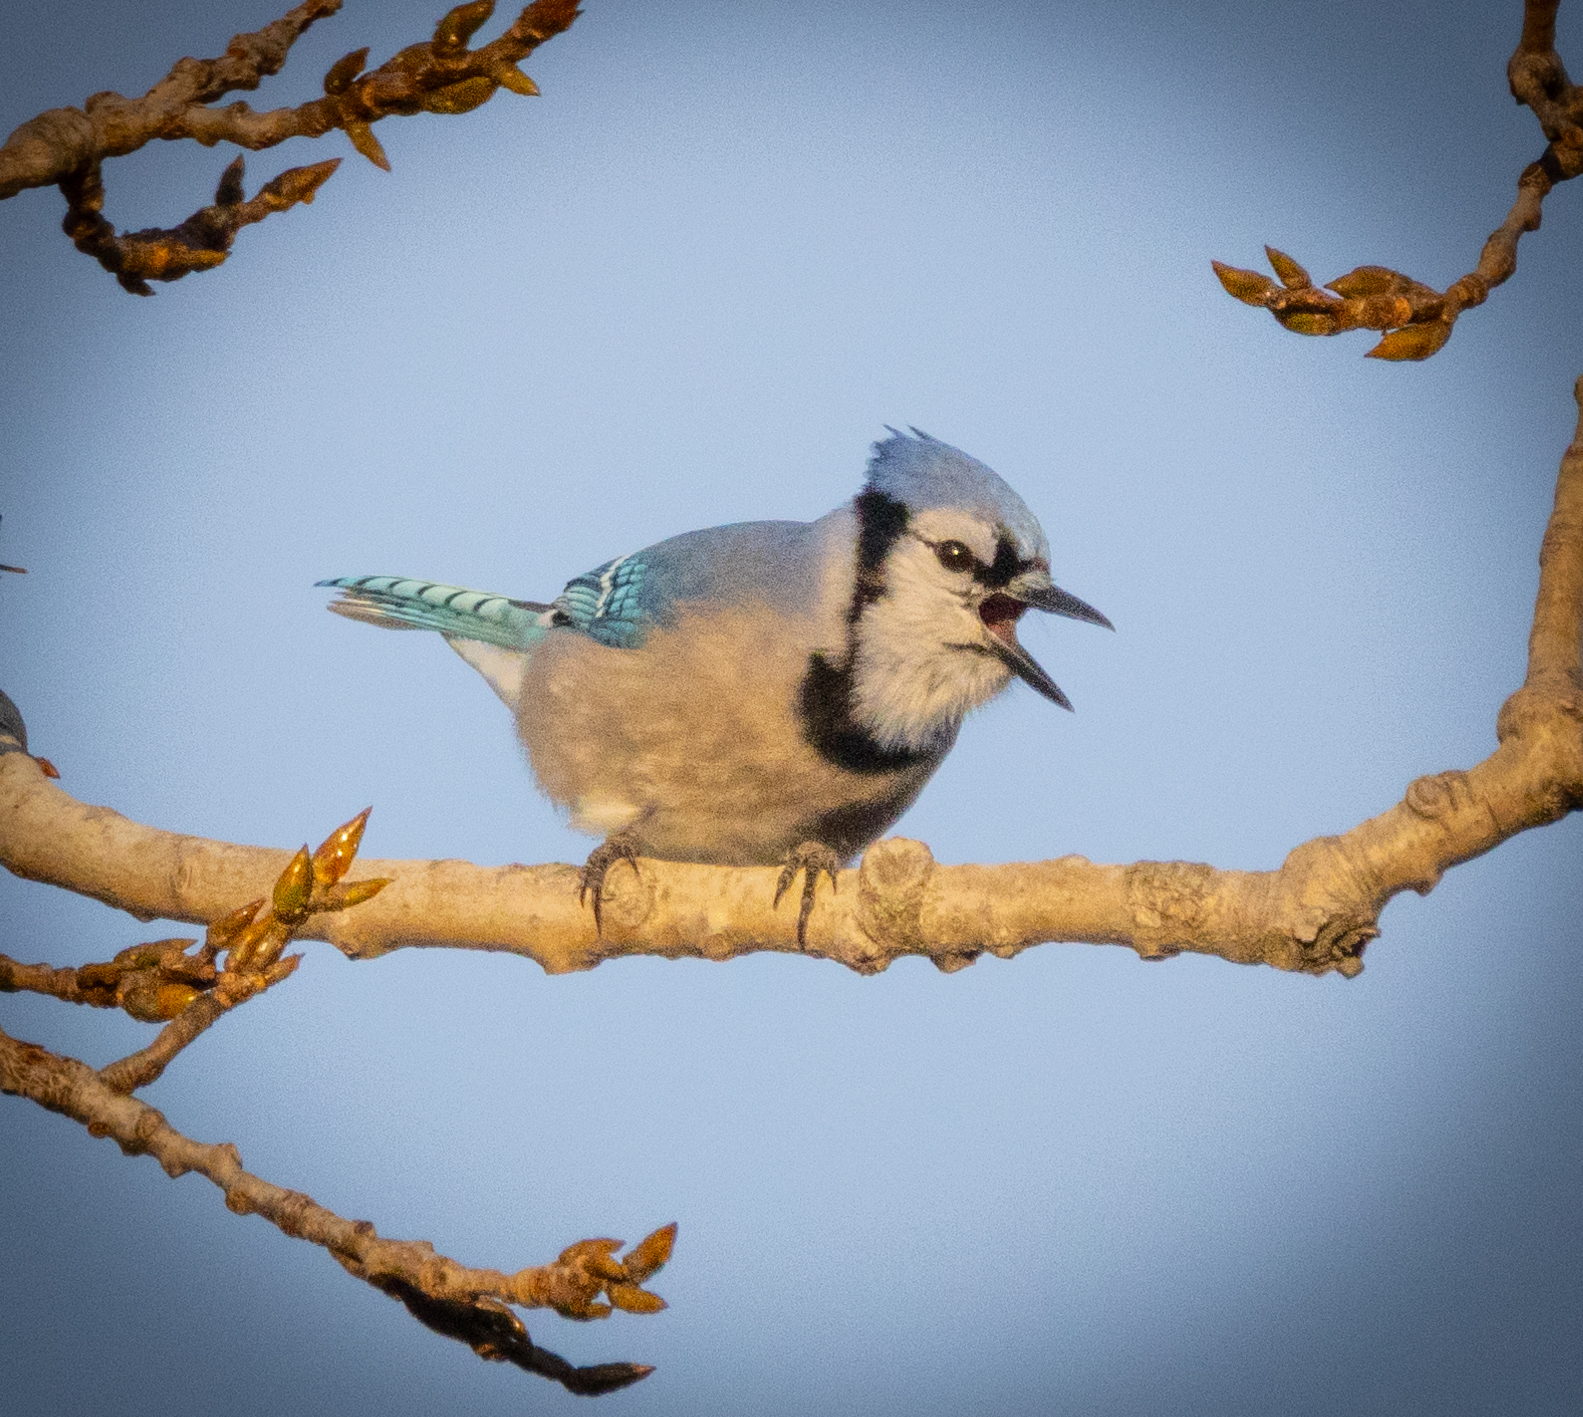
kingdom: Animalia
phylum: Chordata
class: Aves
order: Passeriformes
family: Corvidae
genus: Cyanocitta
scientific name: Cyanocitta cristata
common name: Blue jay
